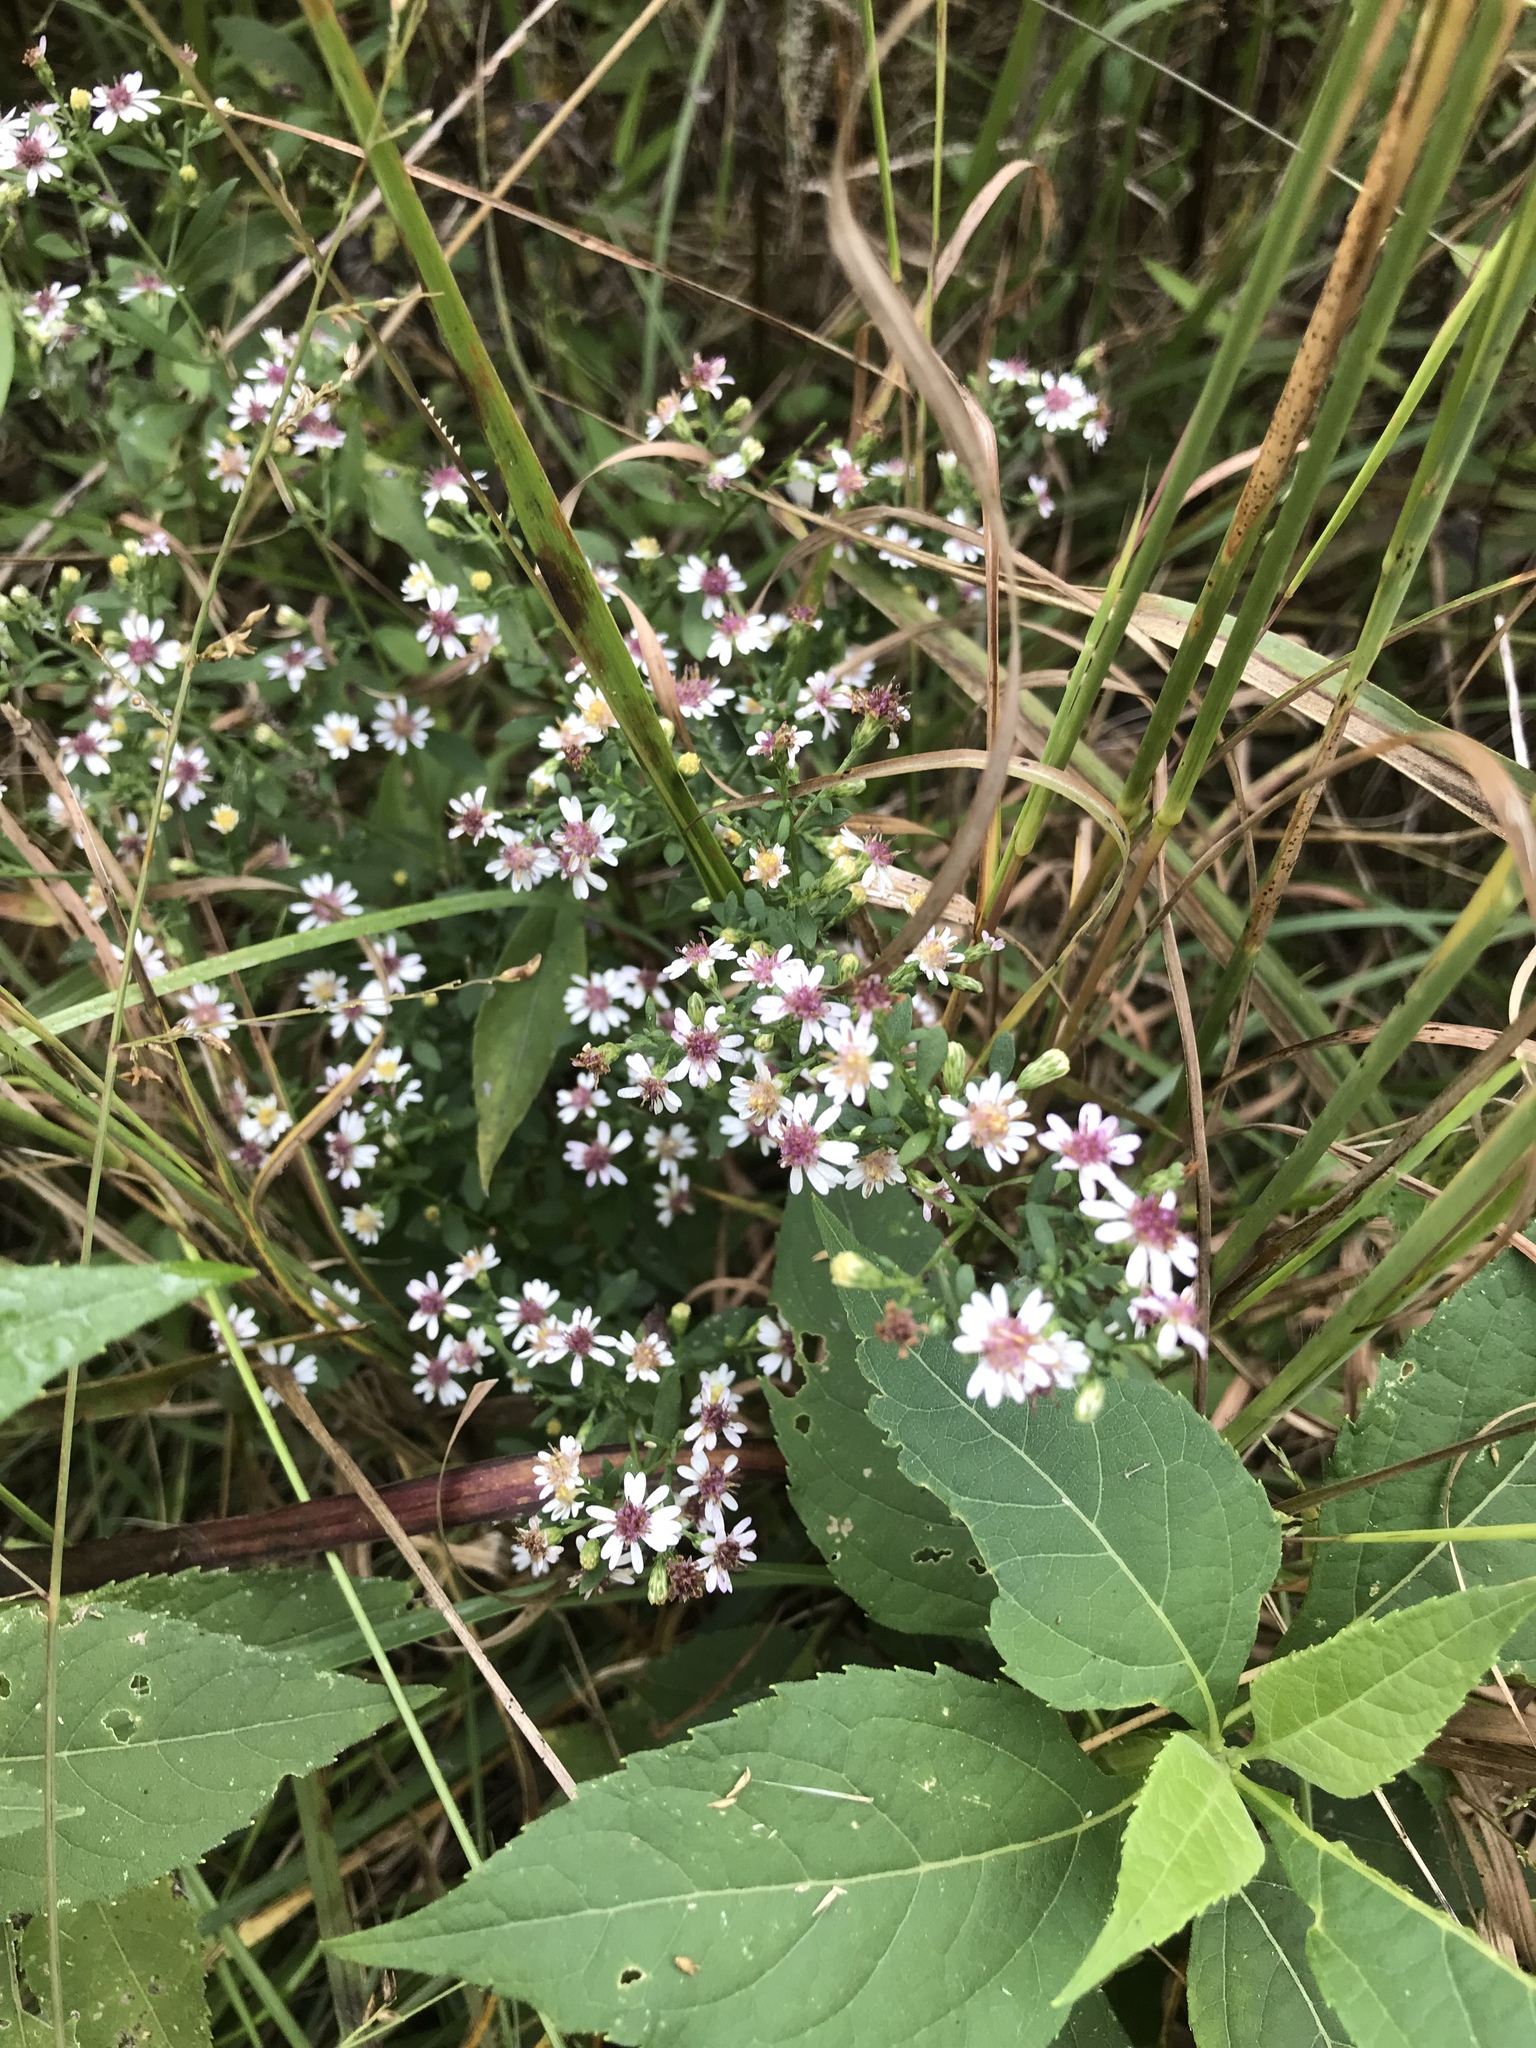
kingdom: Plantae
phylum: Tracheophyta
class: Magnoliopsida
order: Asterales
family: Asteraceae
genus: Symphyotrichum
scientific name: Symphyotrichum lateriflorum
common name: Calico aster
